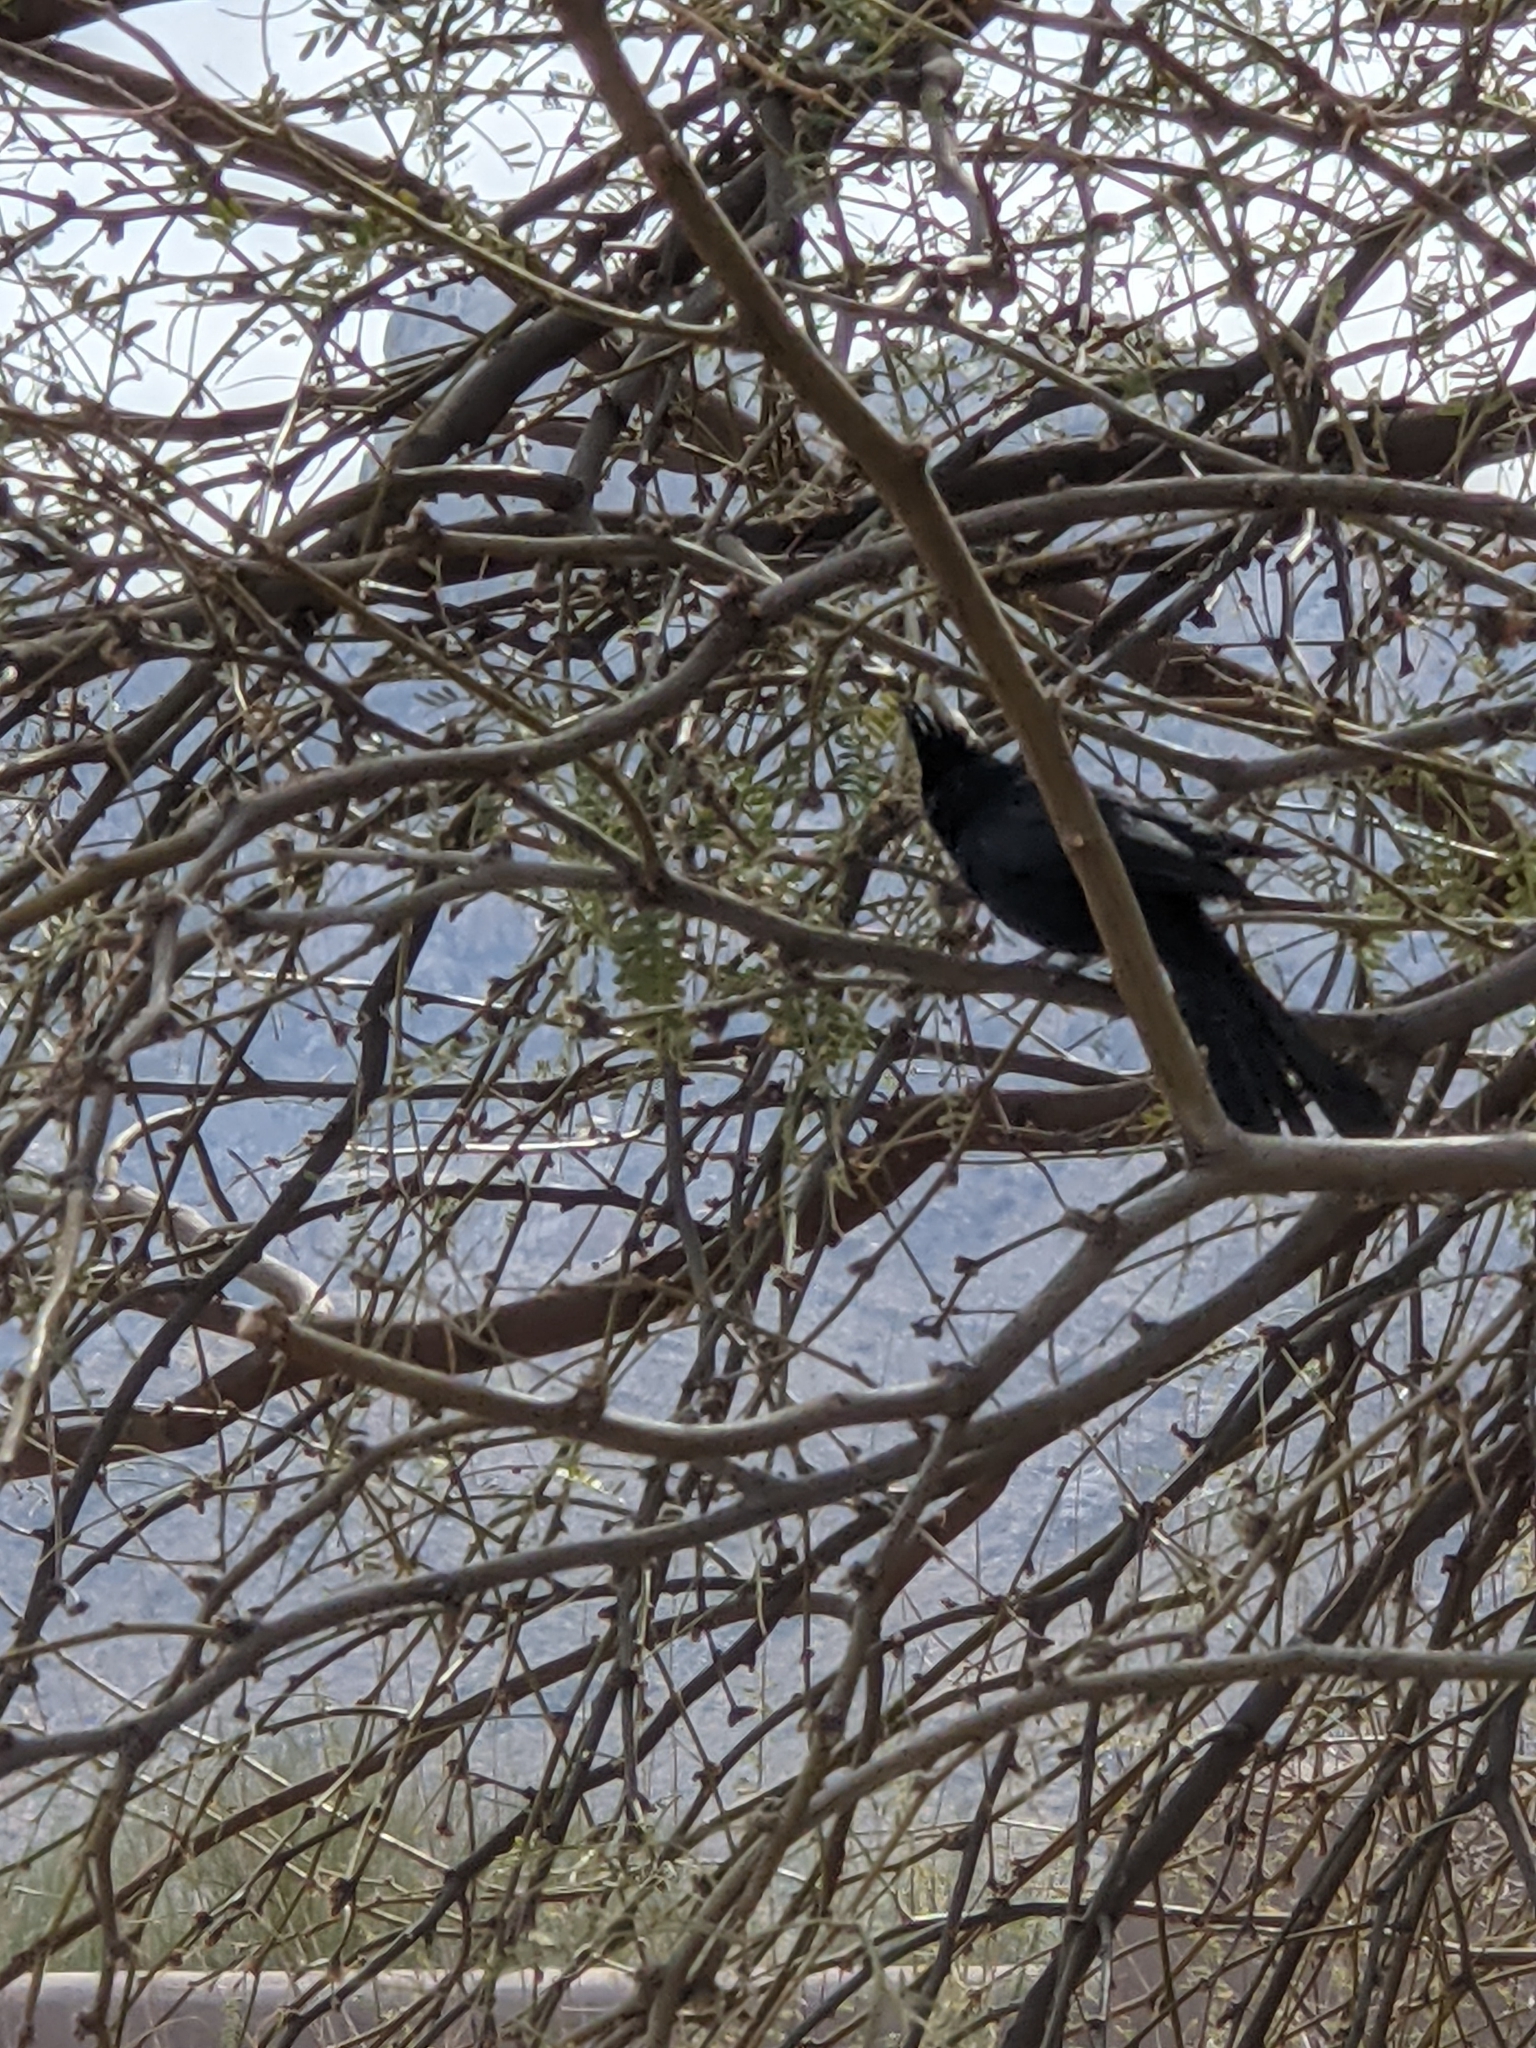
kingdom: Animalia
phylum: Chordata
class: Aves
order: Passeriformes
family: Ptilogonatidae
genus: Phainopepla
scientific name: Phainopepla nitens
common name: Phainopepla
